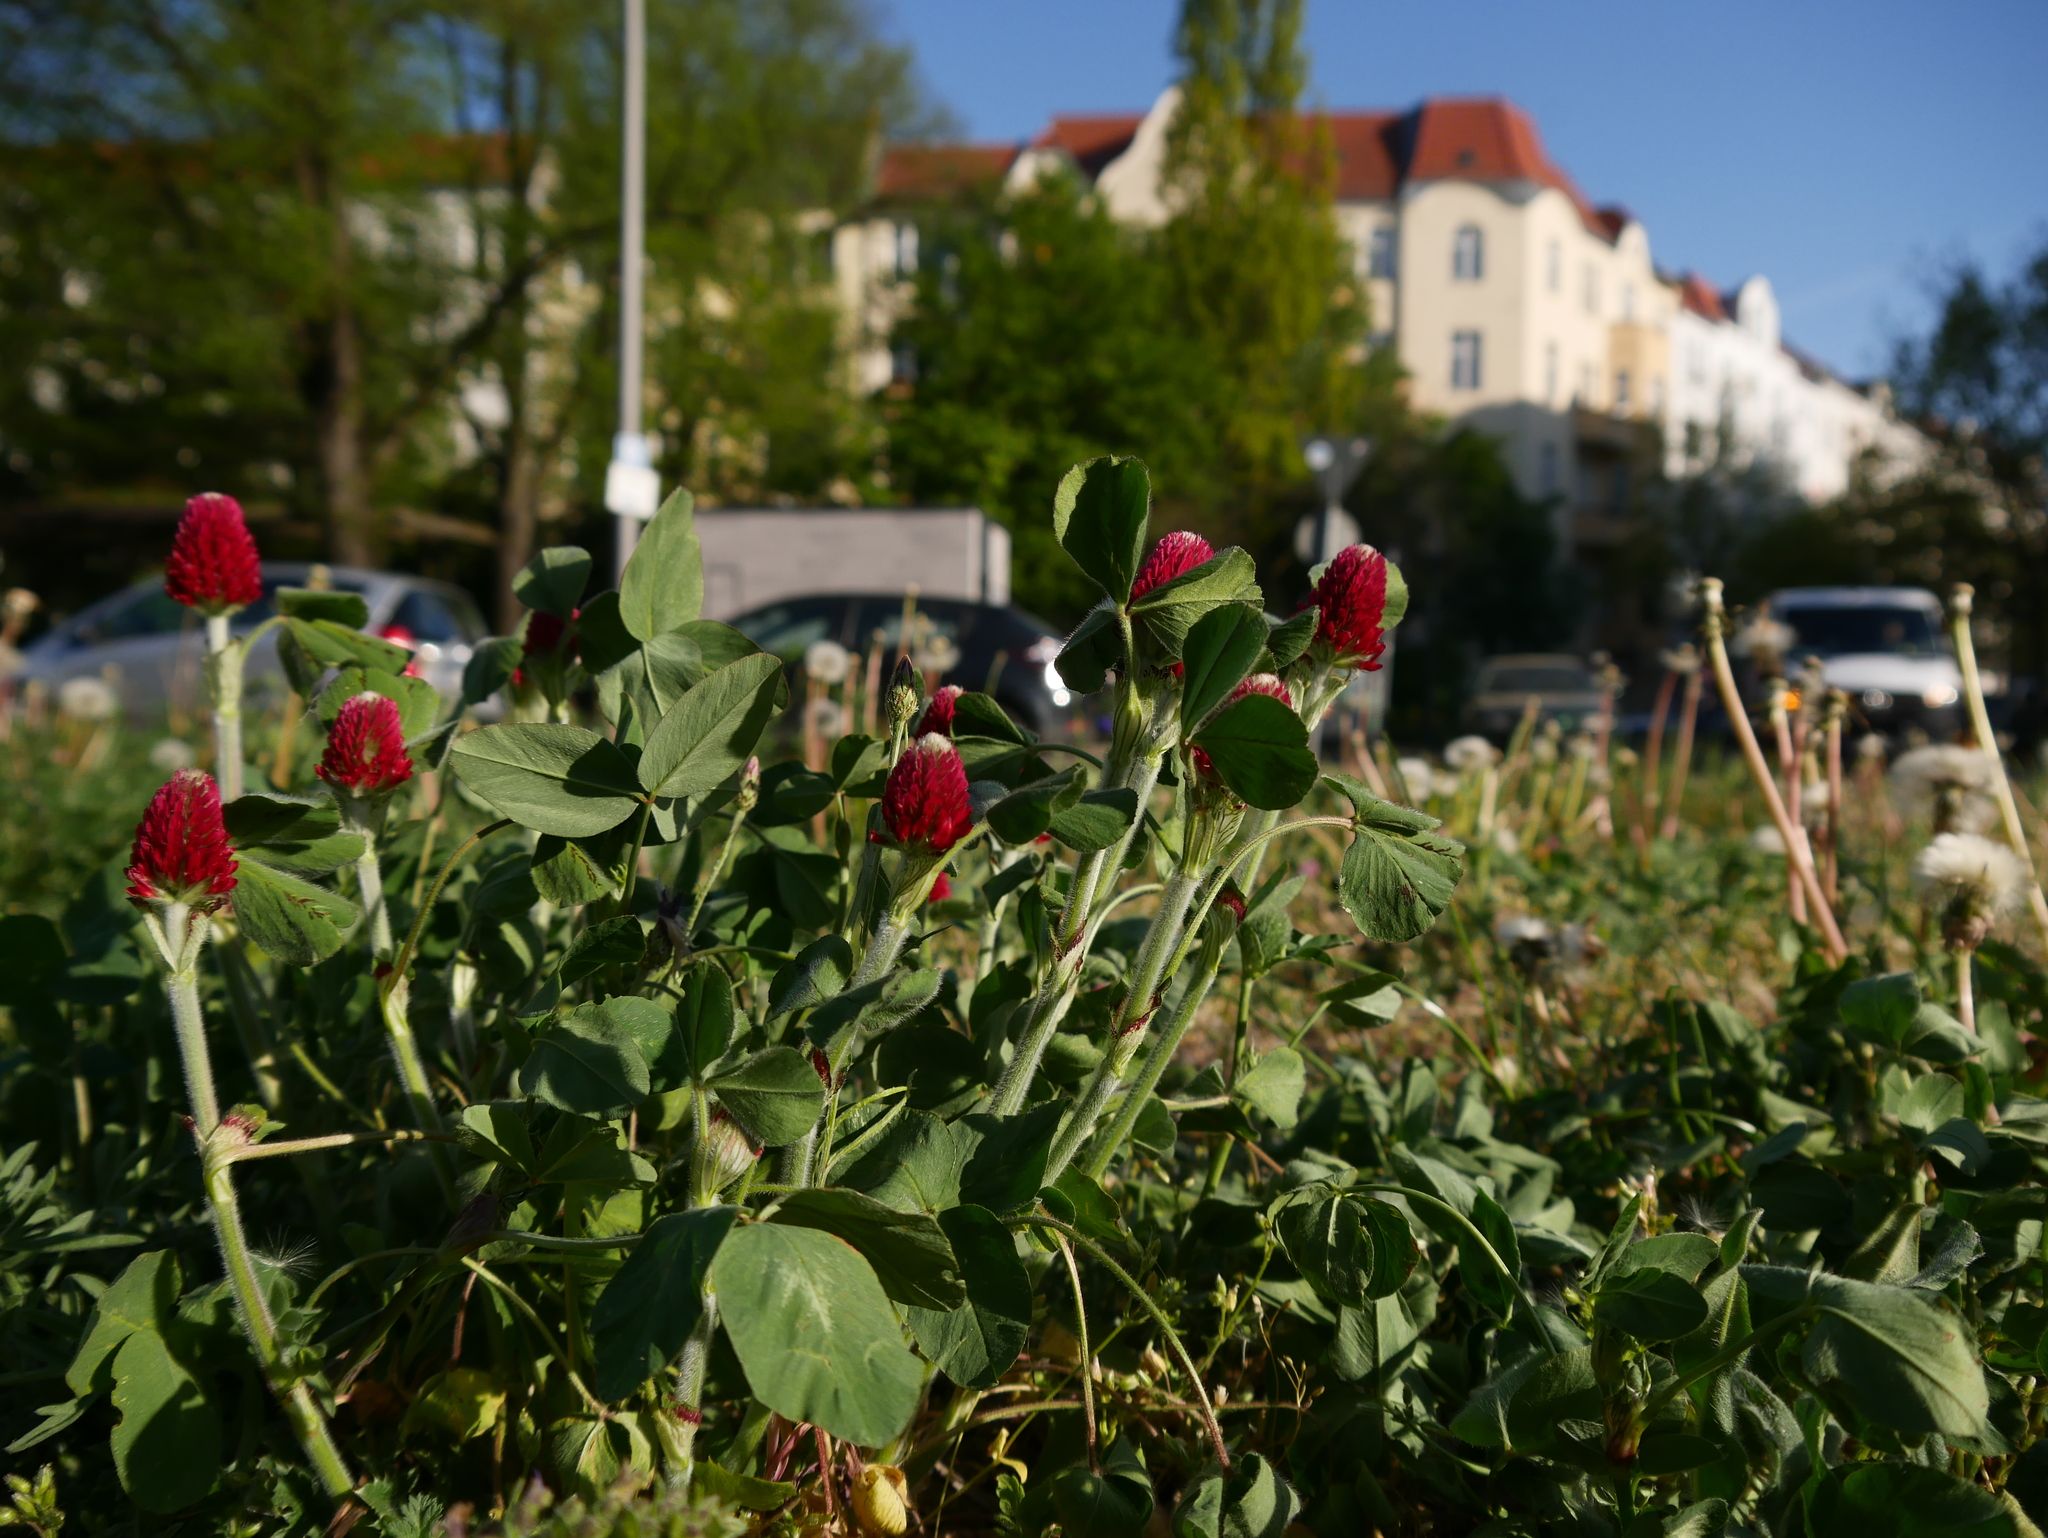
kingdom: Plantae
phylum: Tracheophyta
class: Magnoliopsida
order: Fabales
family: Fabaceae
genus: Trifolium
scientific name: Trifolium incarnatum
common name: Crimson clover
